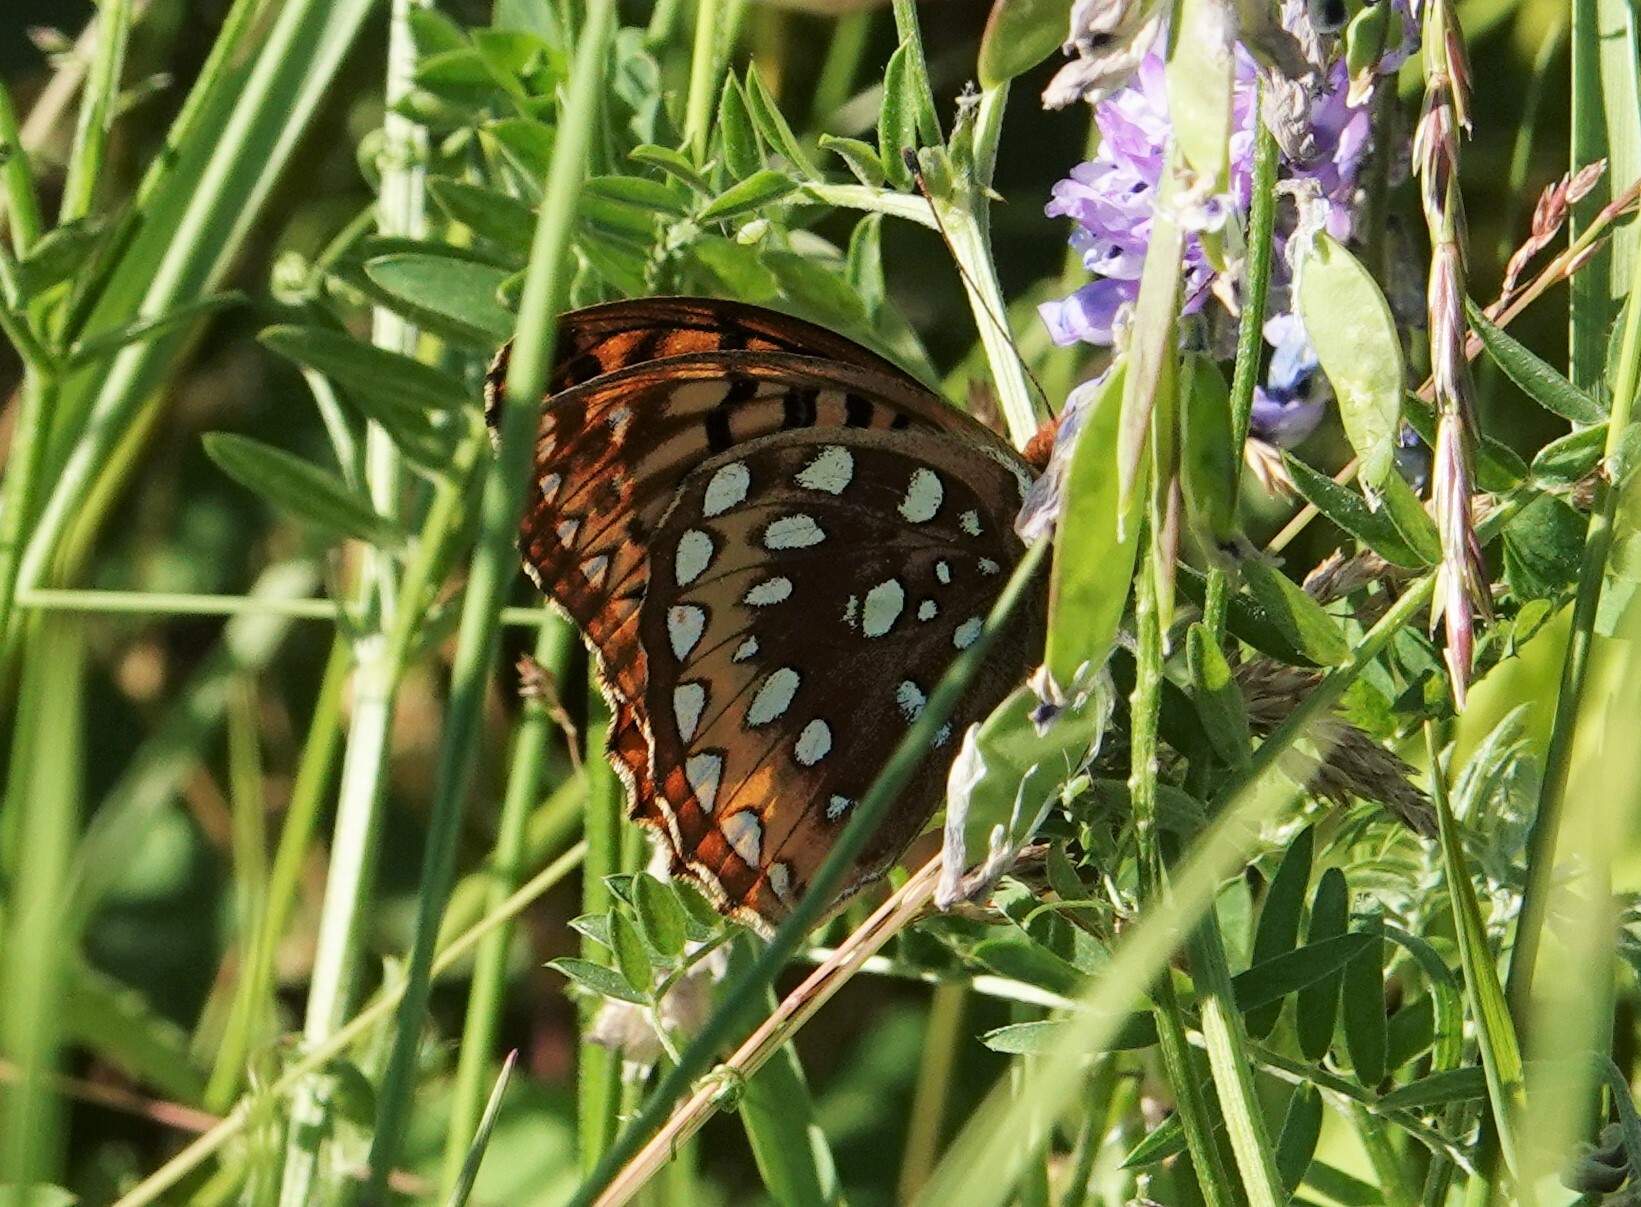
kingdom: Animalia
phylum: Arthropoda
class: Insecta
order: Lepidoptera
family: Nymphalidae
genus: Speyeria
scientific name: Speyeria cybele
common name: Great spangled fritillary
